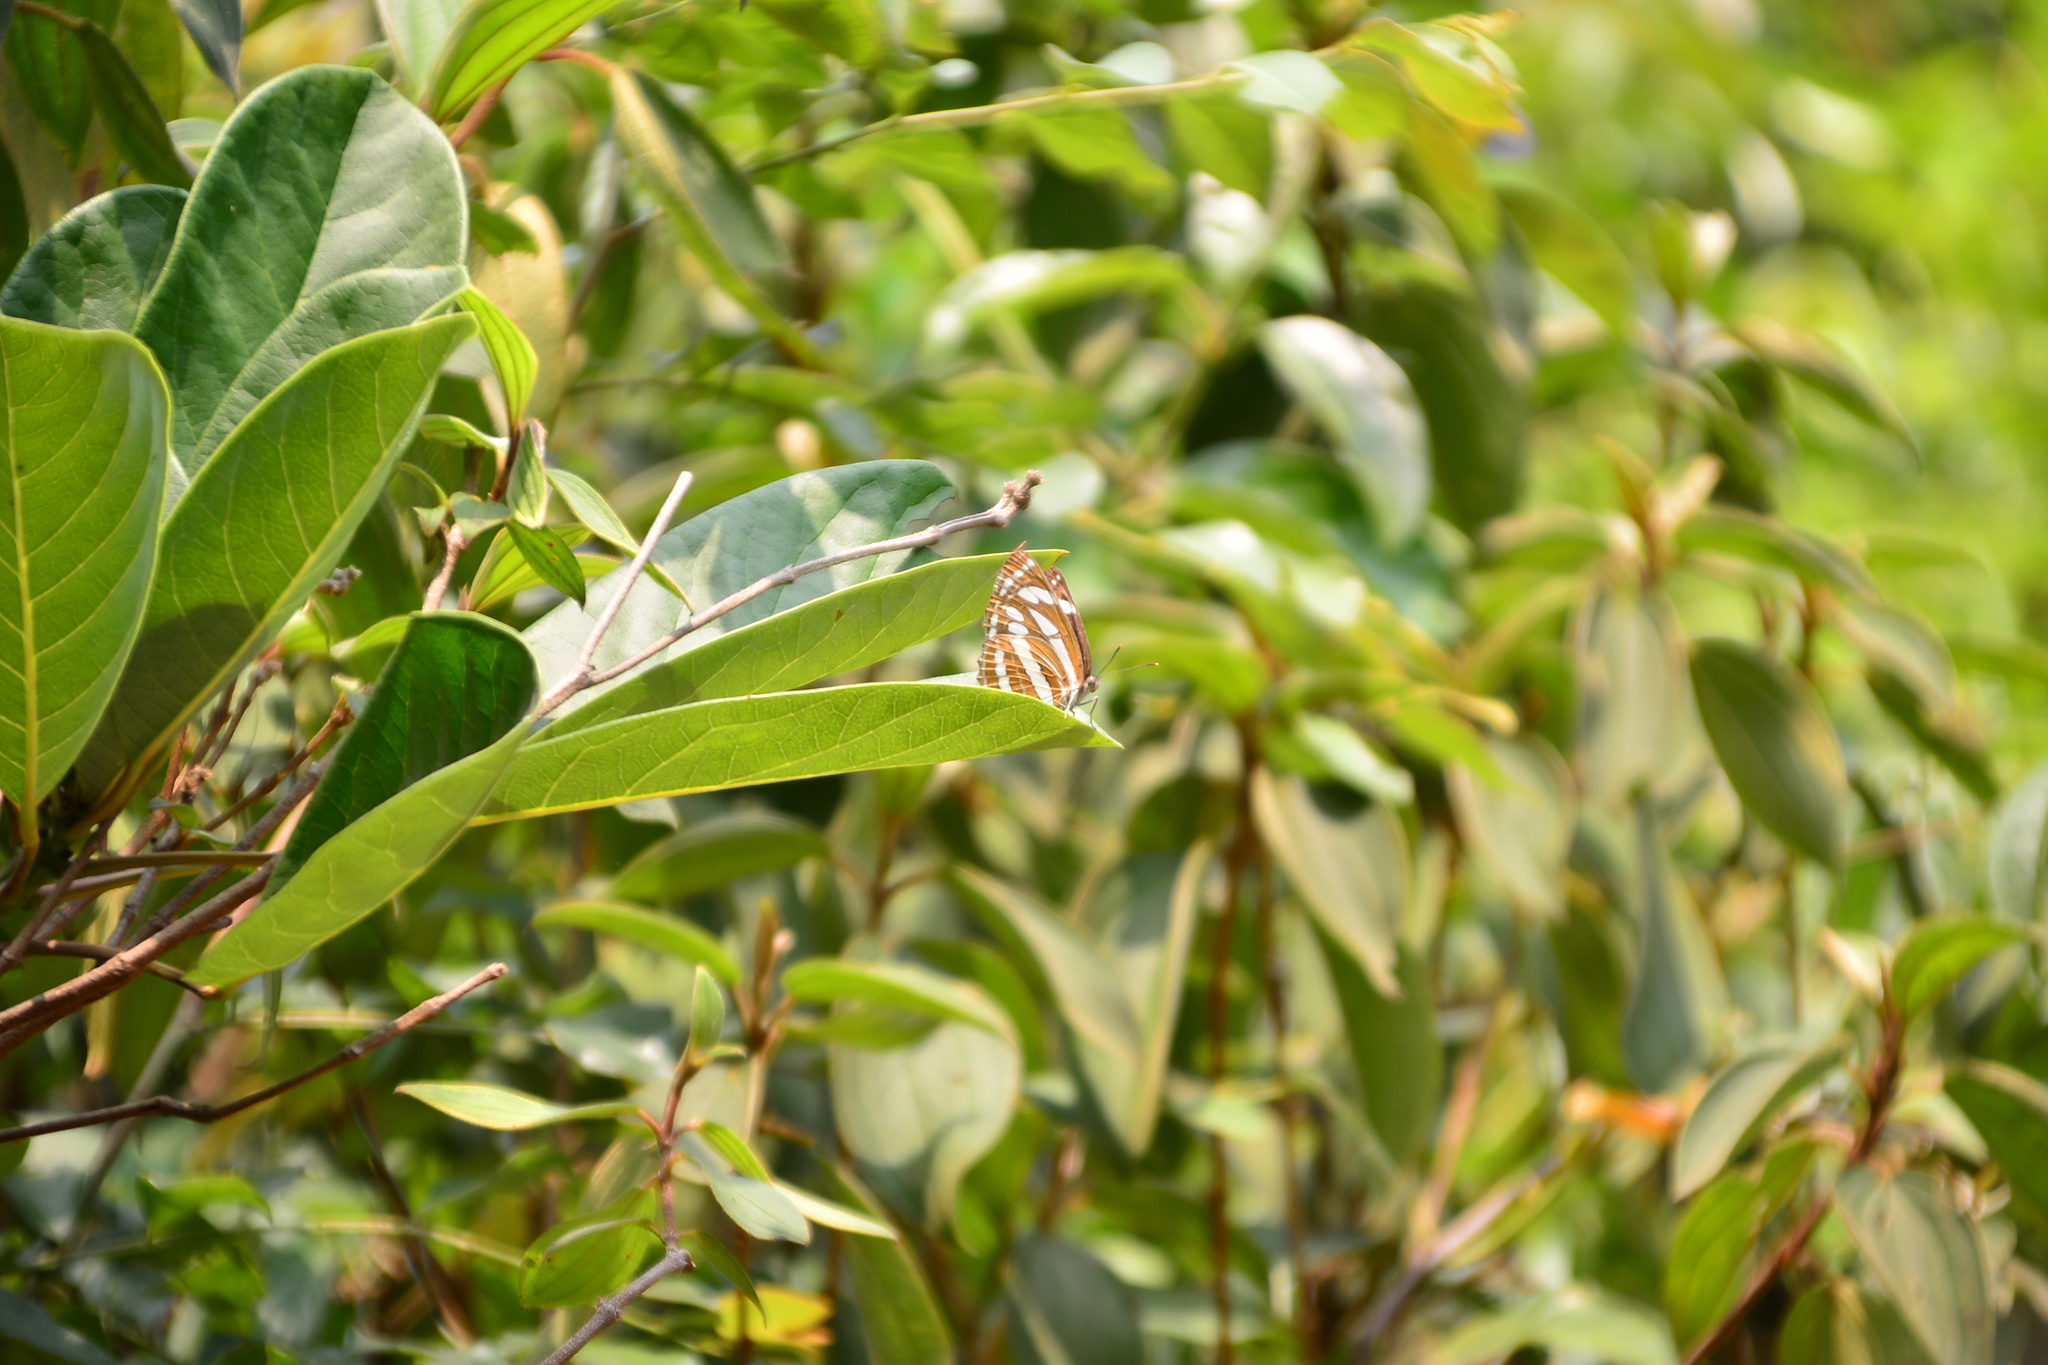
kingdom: Animalia
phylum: Arthropoda
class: Insecta
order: Lepidoptera
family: Nymphalidae
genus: Neptis
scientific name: Neptis hylas
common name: Common sailer
